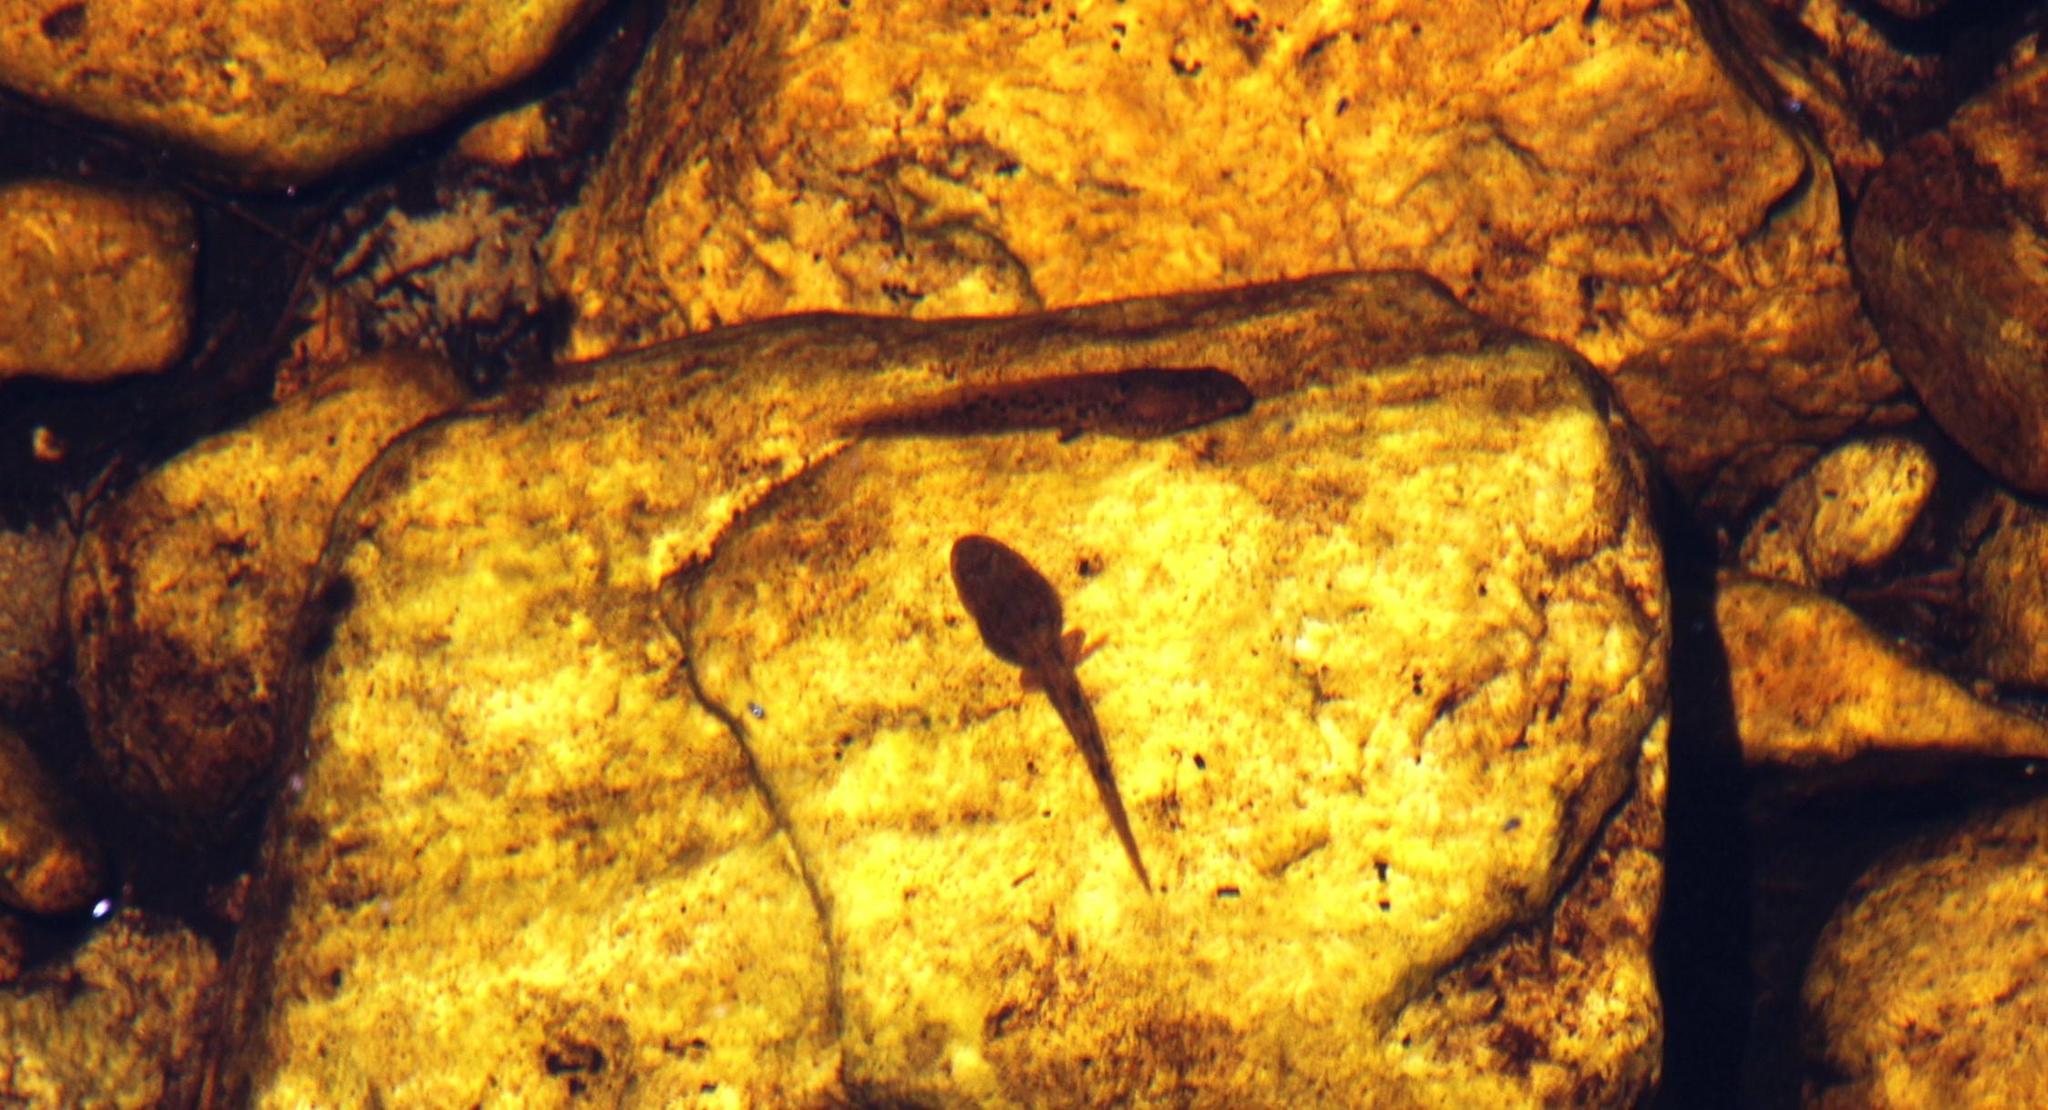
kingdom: Animalia
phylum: Chordata
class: Amphibia
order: Anura
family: Pyxicephalidae
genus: Amietia
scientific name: Amietia fuscigula
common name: Cape rana
